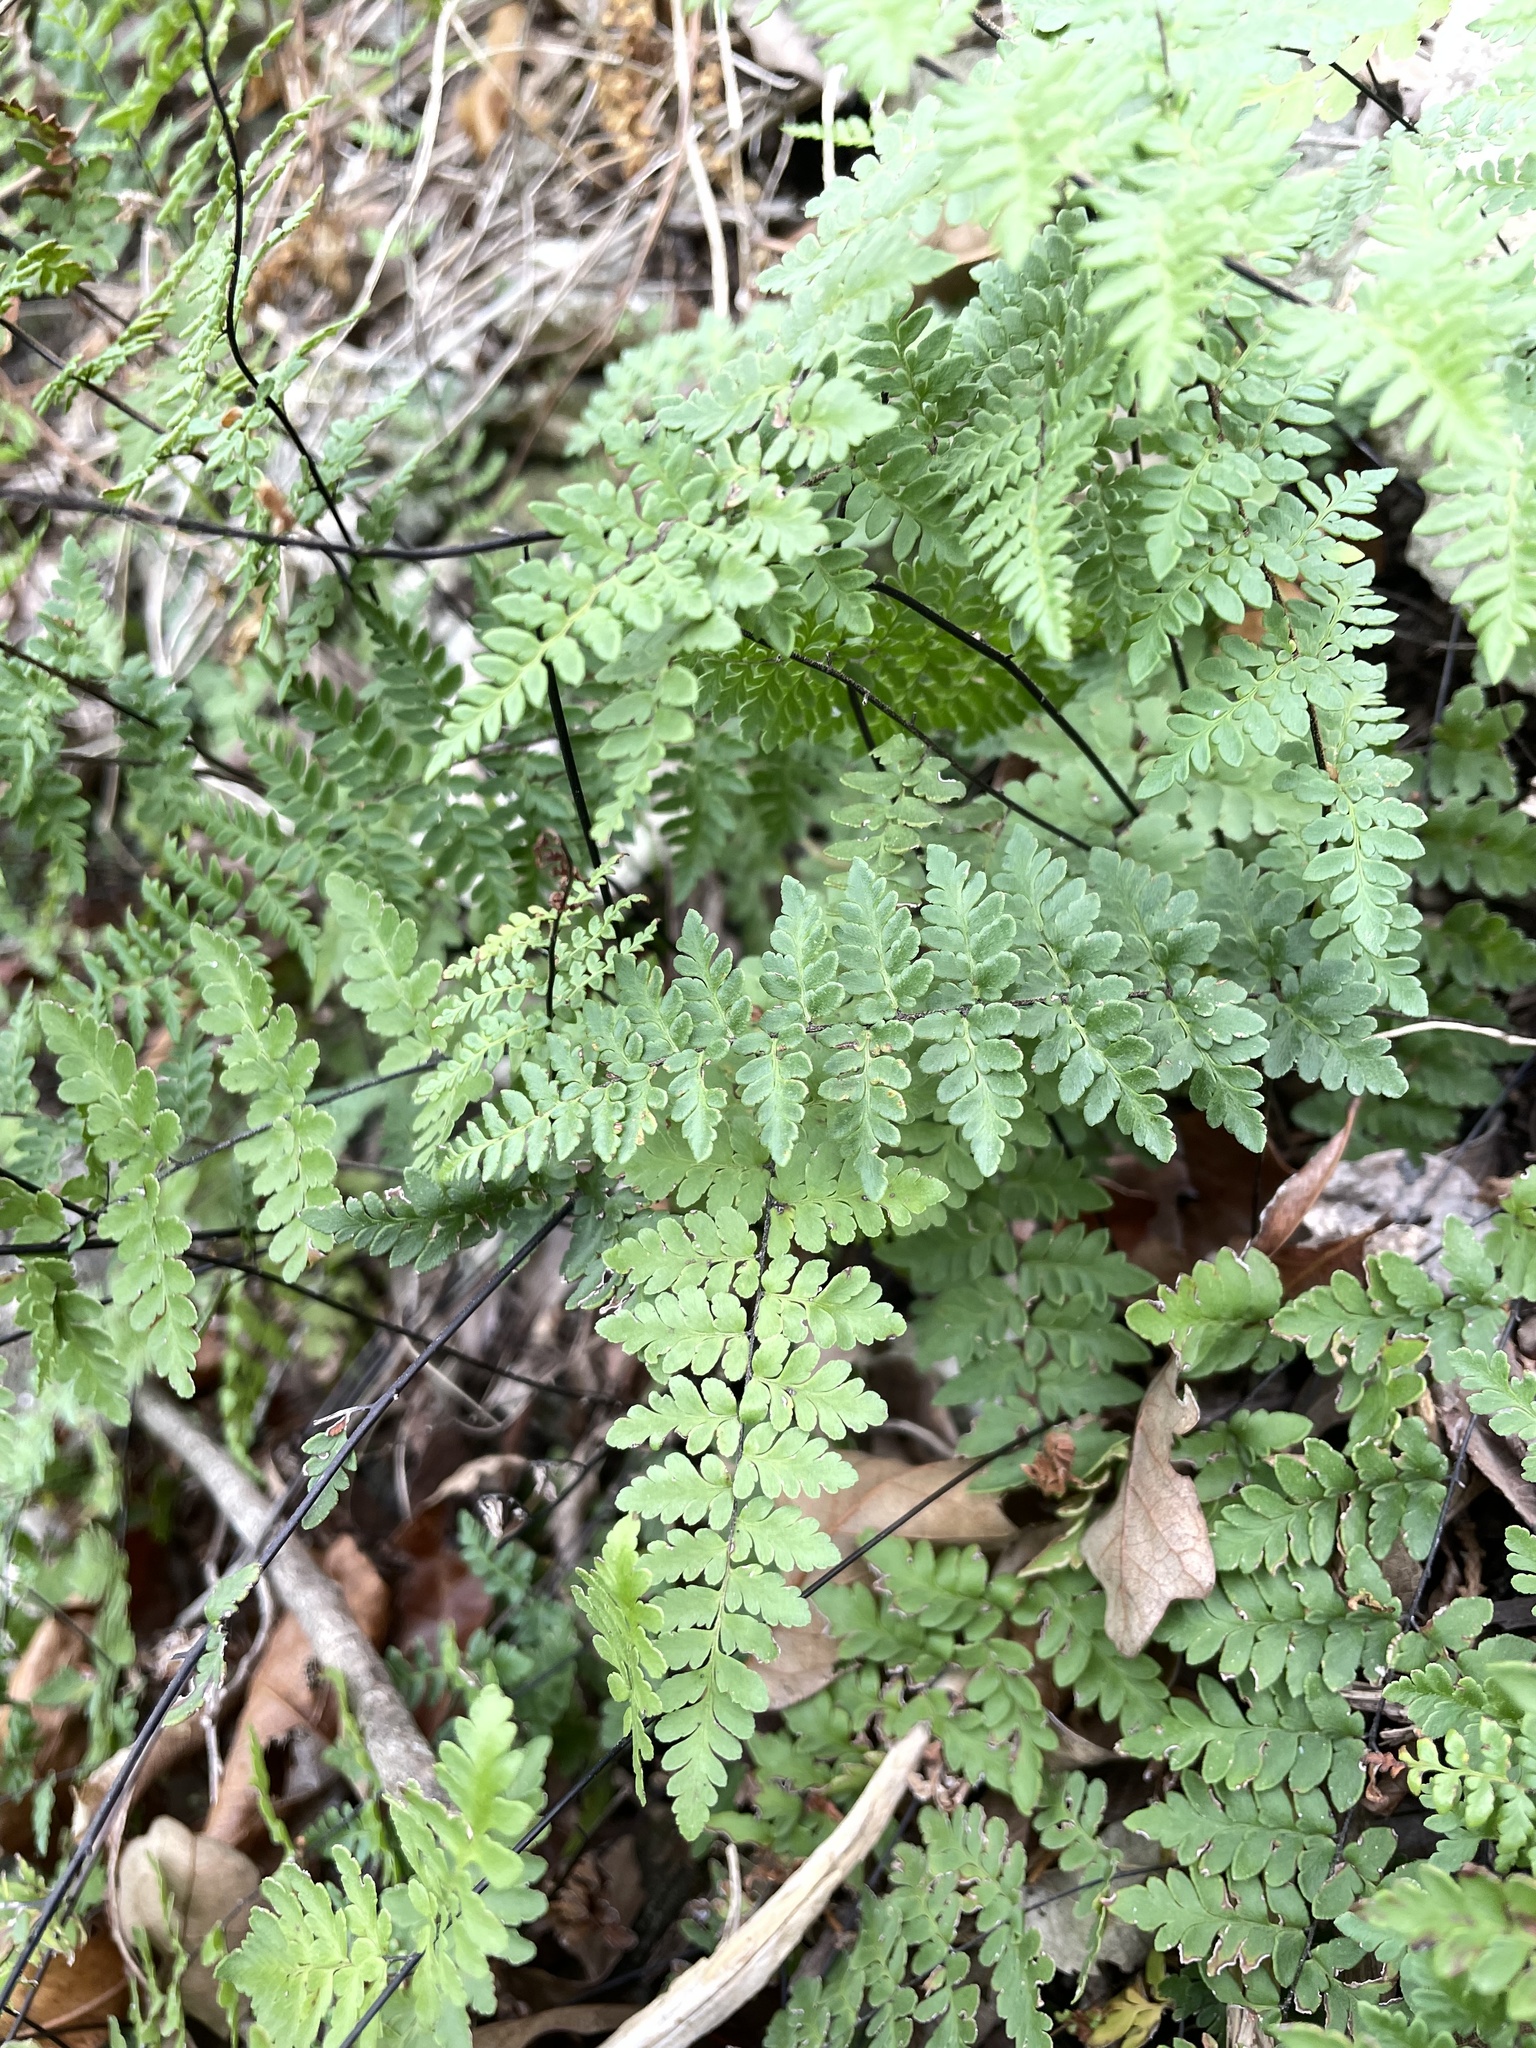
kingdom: Plantae
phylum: Tracheophyta
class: Polypodiopsida
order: Polypodiales
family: Pteridaceae
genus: Myriopteris
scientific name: Myriopteris alabamensis
